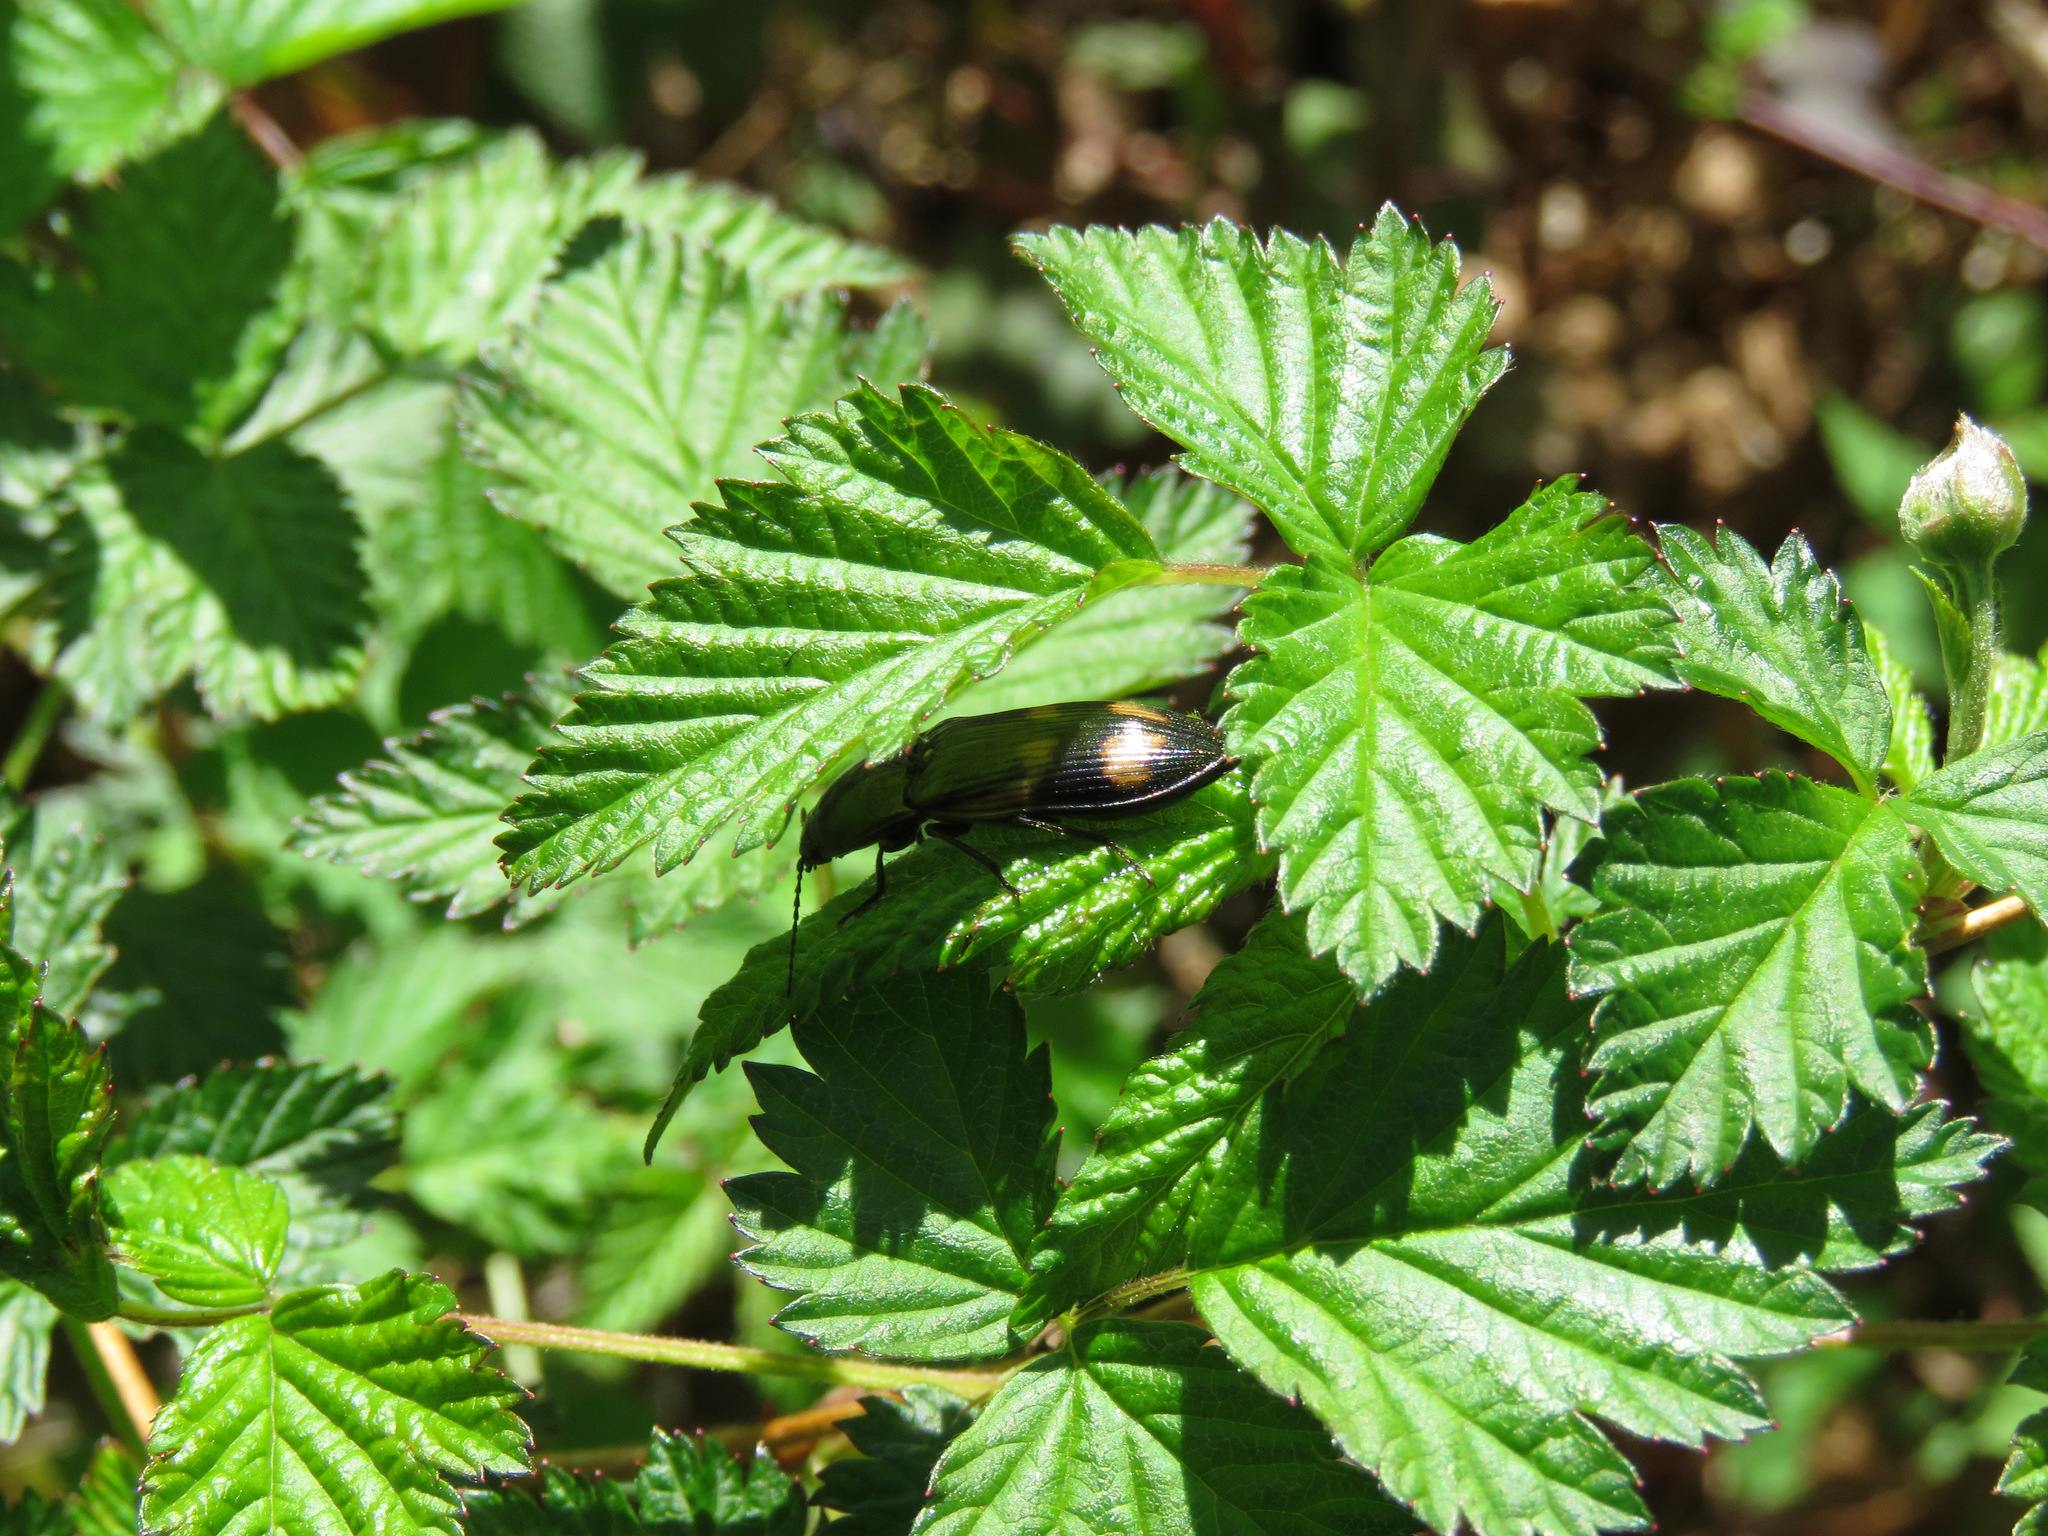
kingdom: Animalia
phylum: Arthropoda
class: Insecta
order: Coleoptera
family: Elateridae
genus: Selatosomus
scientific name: Selatosomus suckleyi
